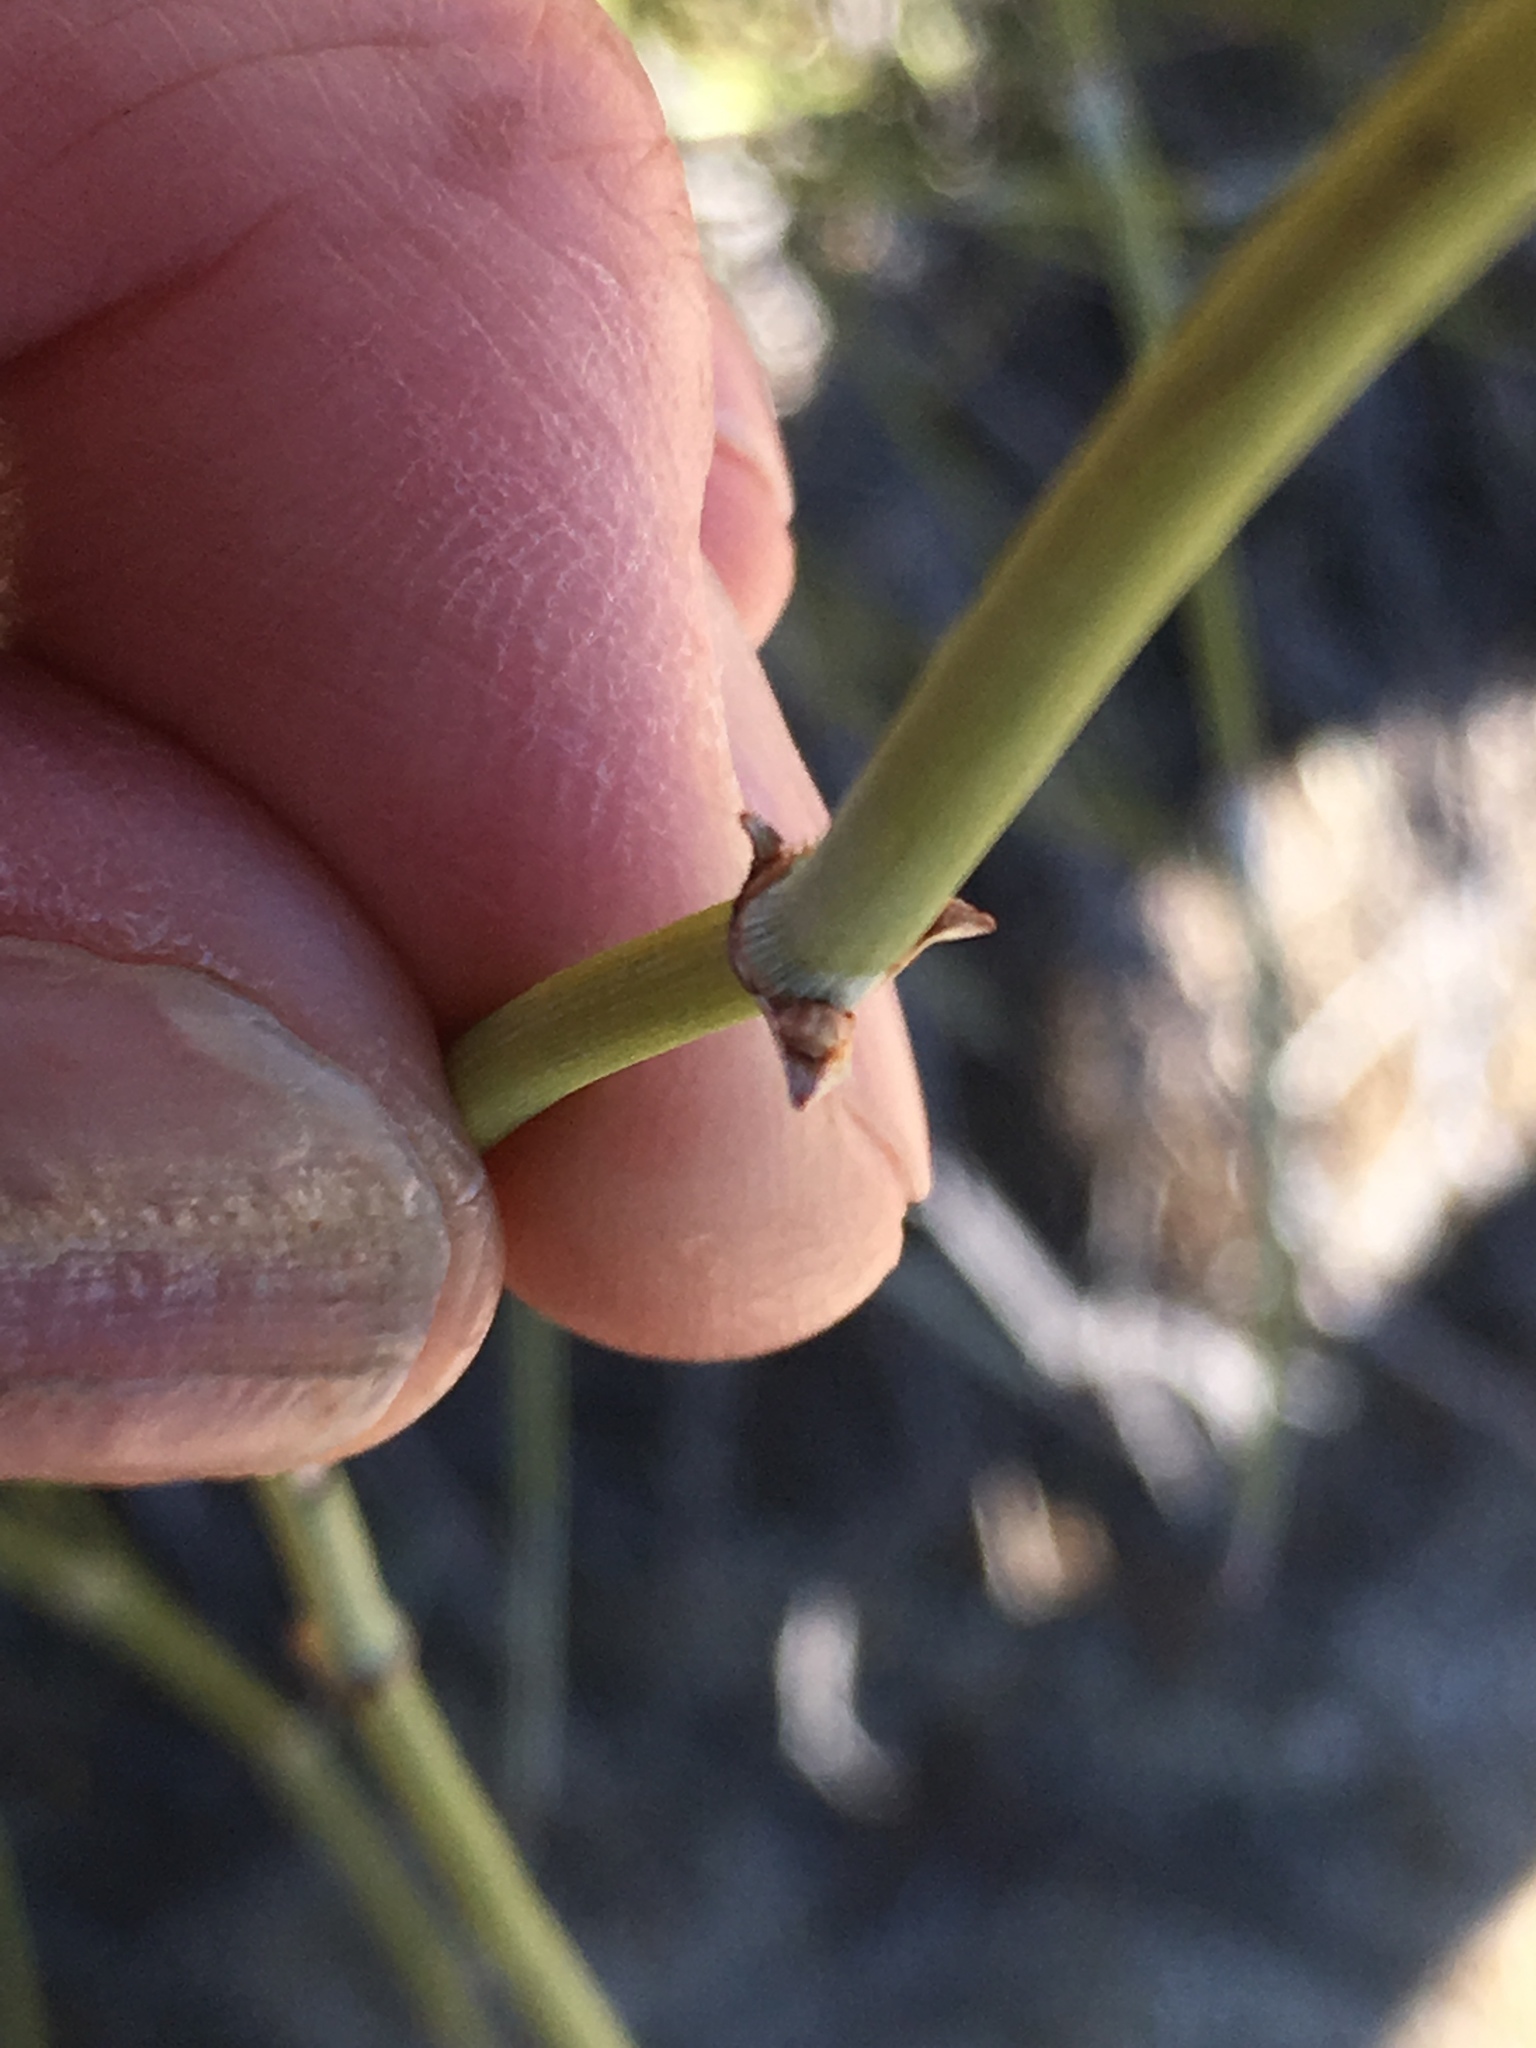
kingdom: Plantae
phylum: Tracheophyta
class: Gnetopsida
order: Ephedrales
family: Ephedraceae
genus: Ephedra
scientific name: Ephedra californica
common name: California ephedra
